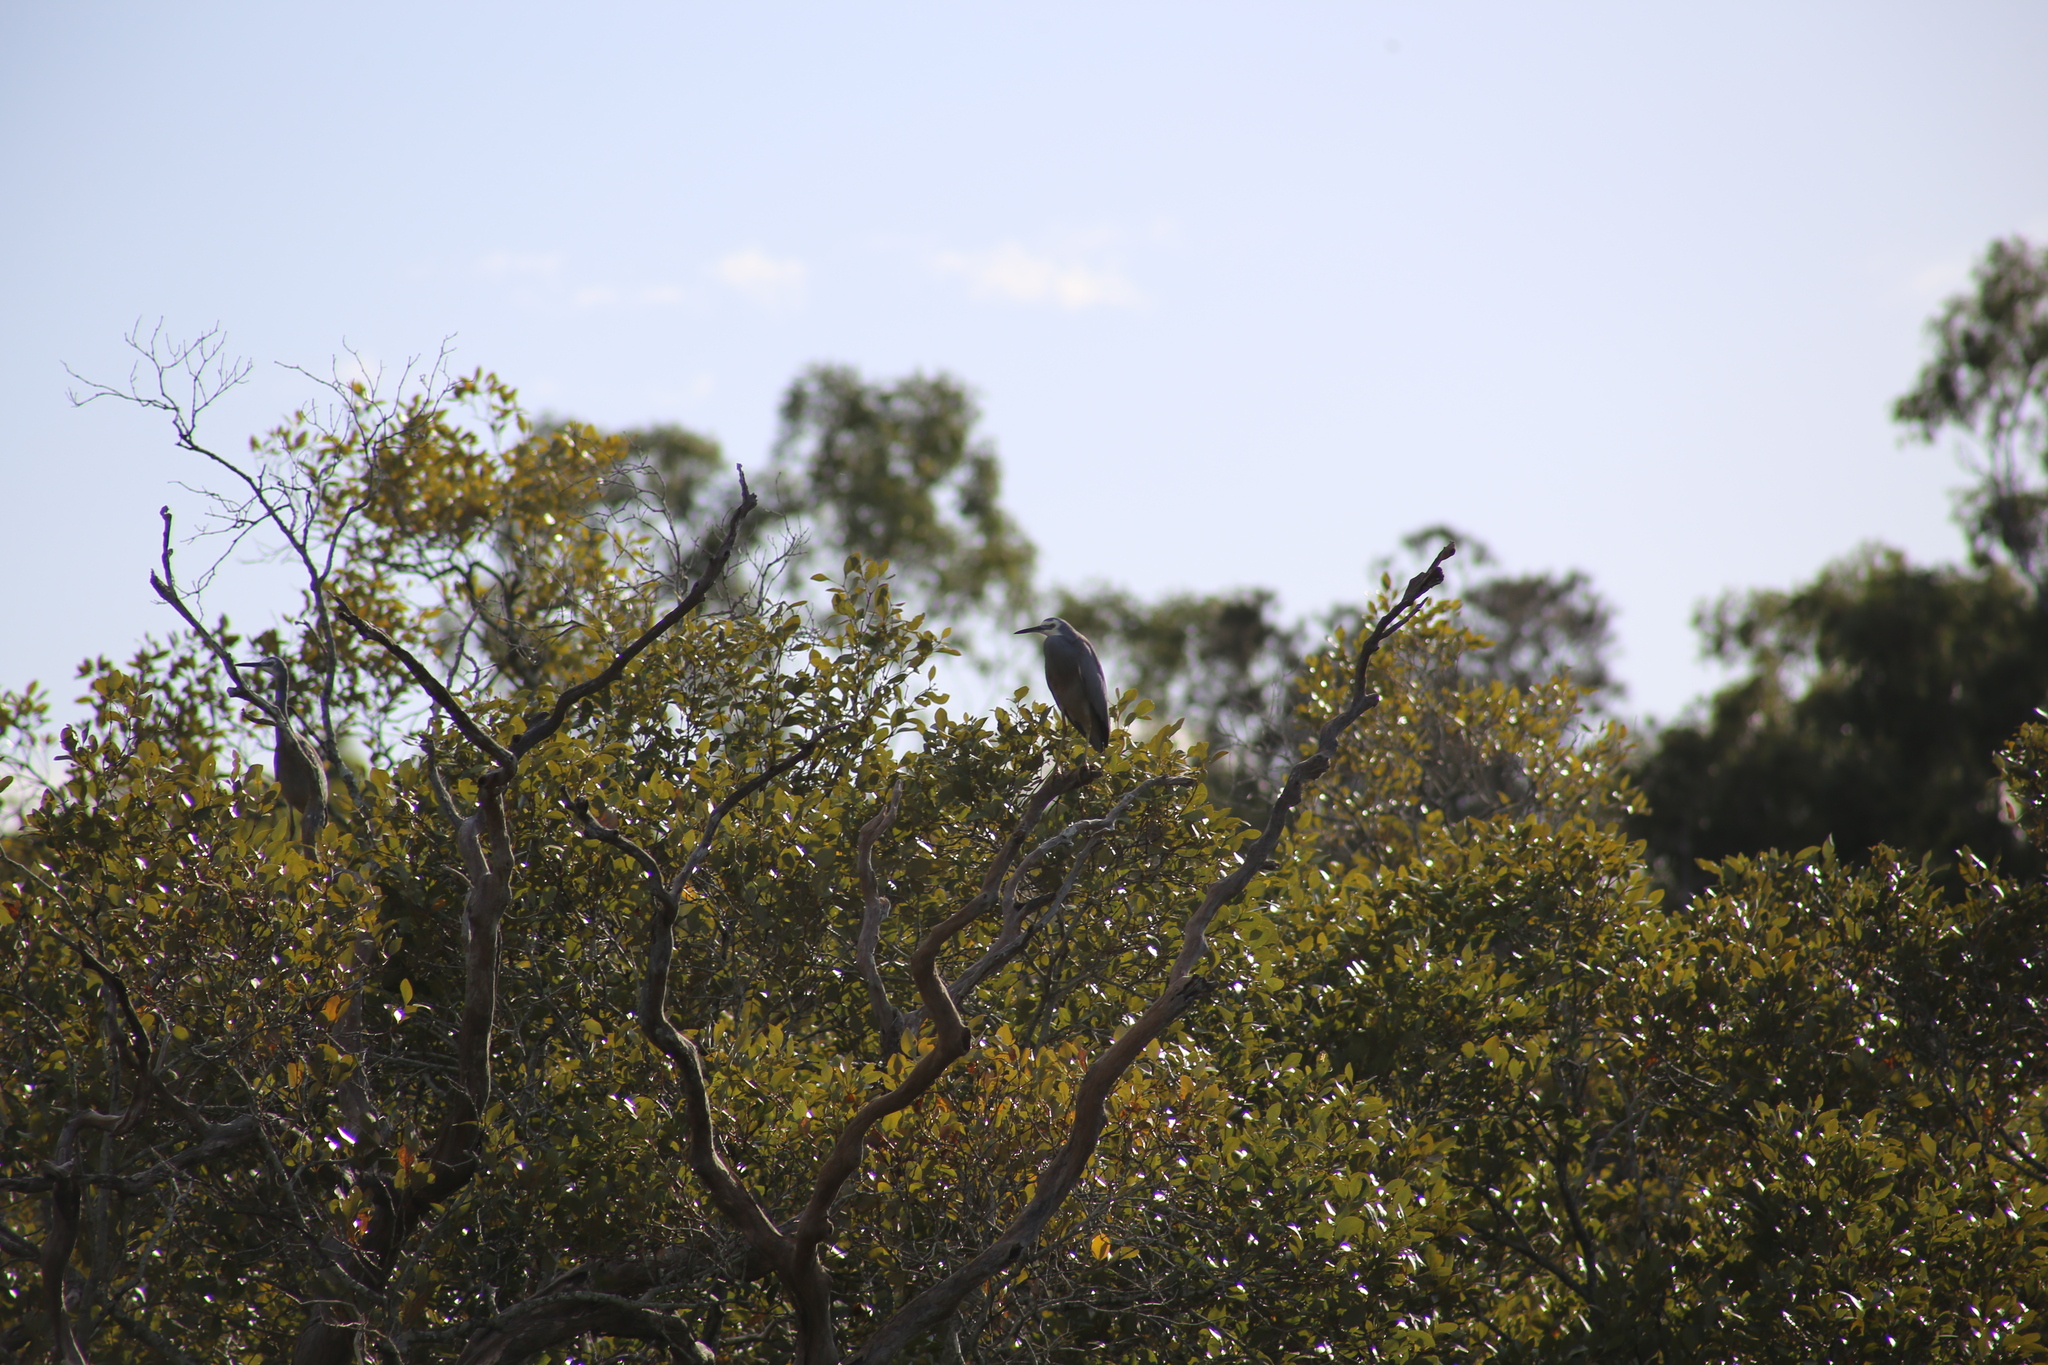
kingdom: Animalia
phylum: Chordata
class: Aves
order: Pelecaniformes
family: Ardeidae
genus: Egretta
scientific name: Egretta novaehollandiae
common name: White-faced heron
